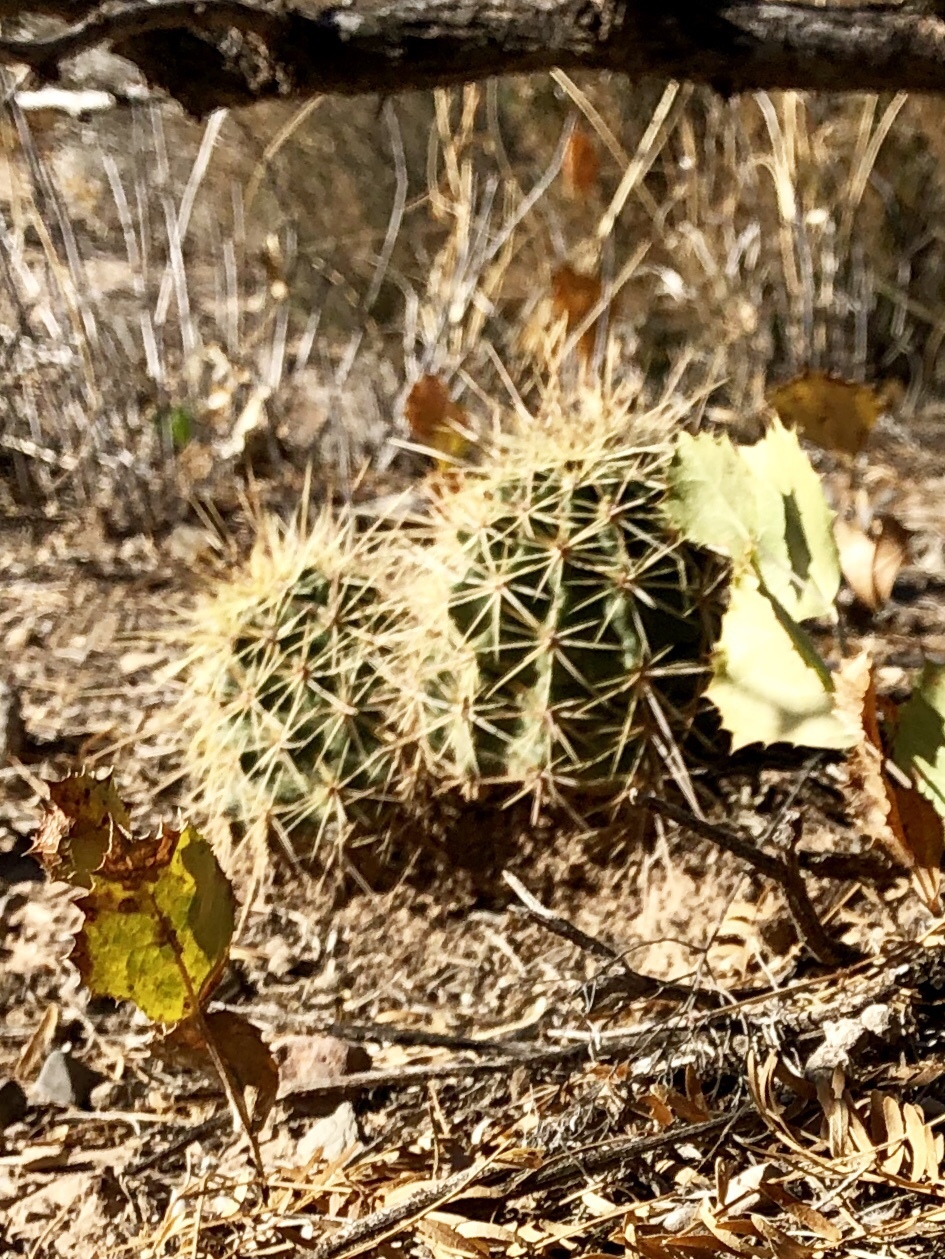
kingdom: Plantae
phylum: Tracheophyta
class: Magnoliopsida
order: Caryophyllales
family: Cactaceae
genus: Echinocereus
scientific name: Echinocereus coccineus
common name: Scarlet hedgehog cactus
